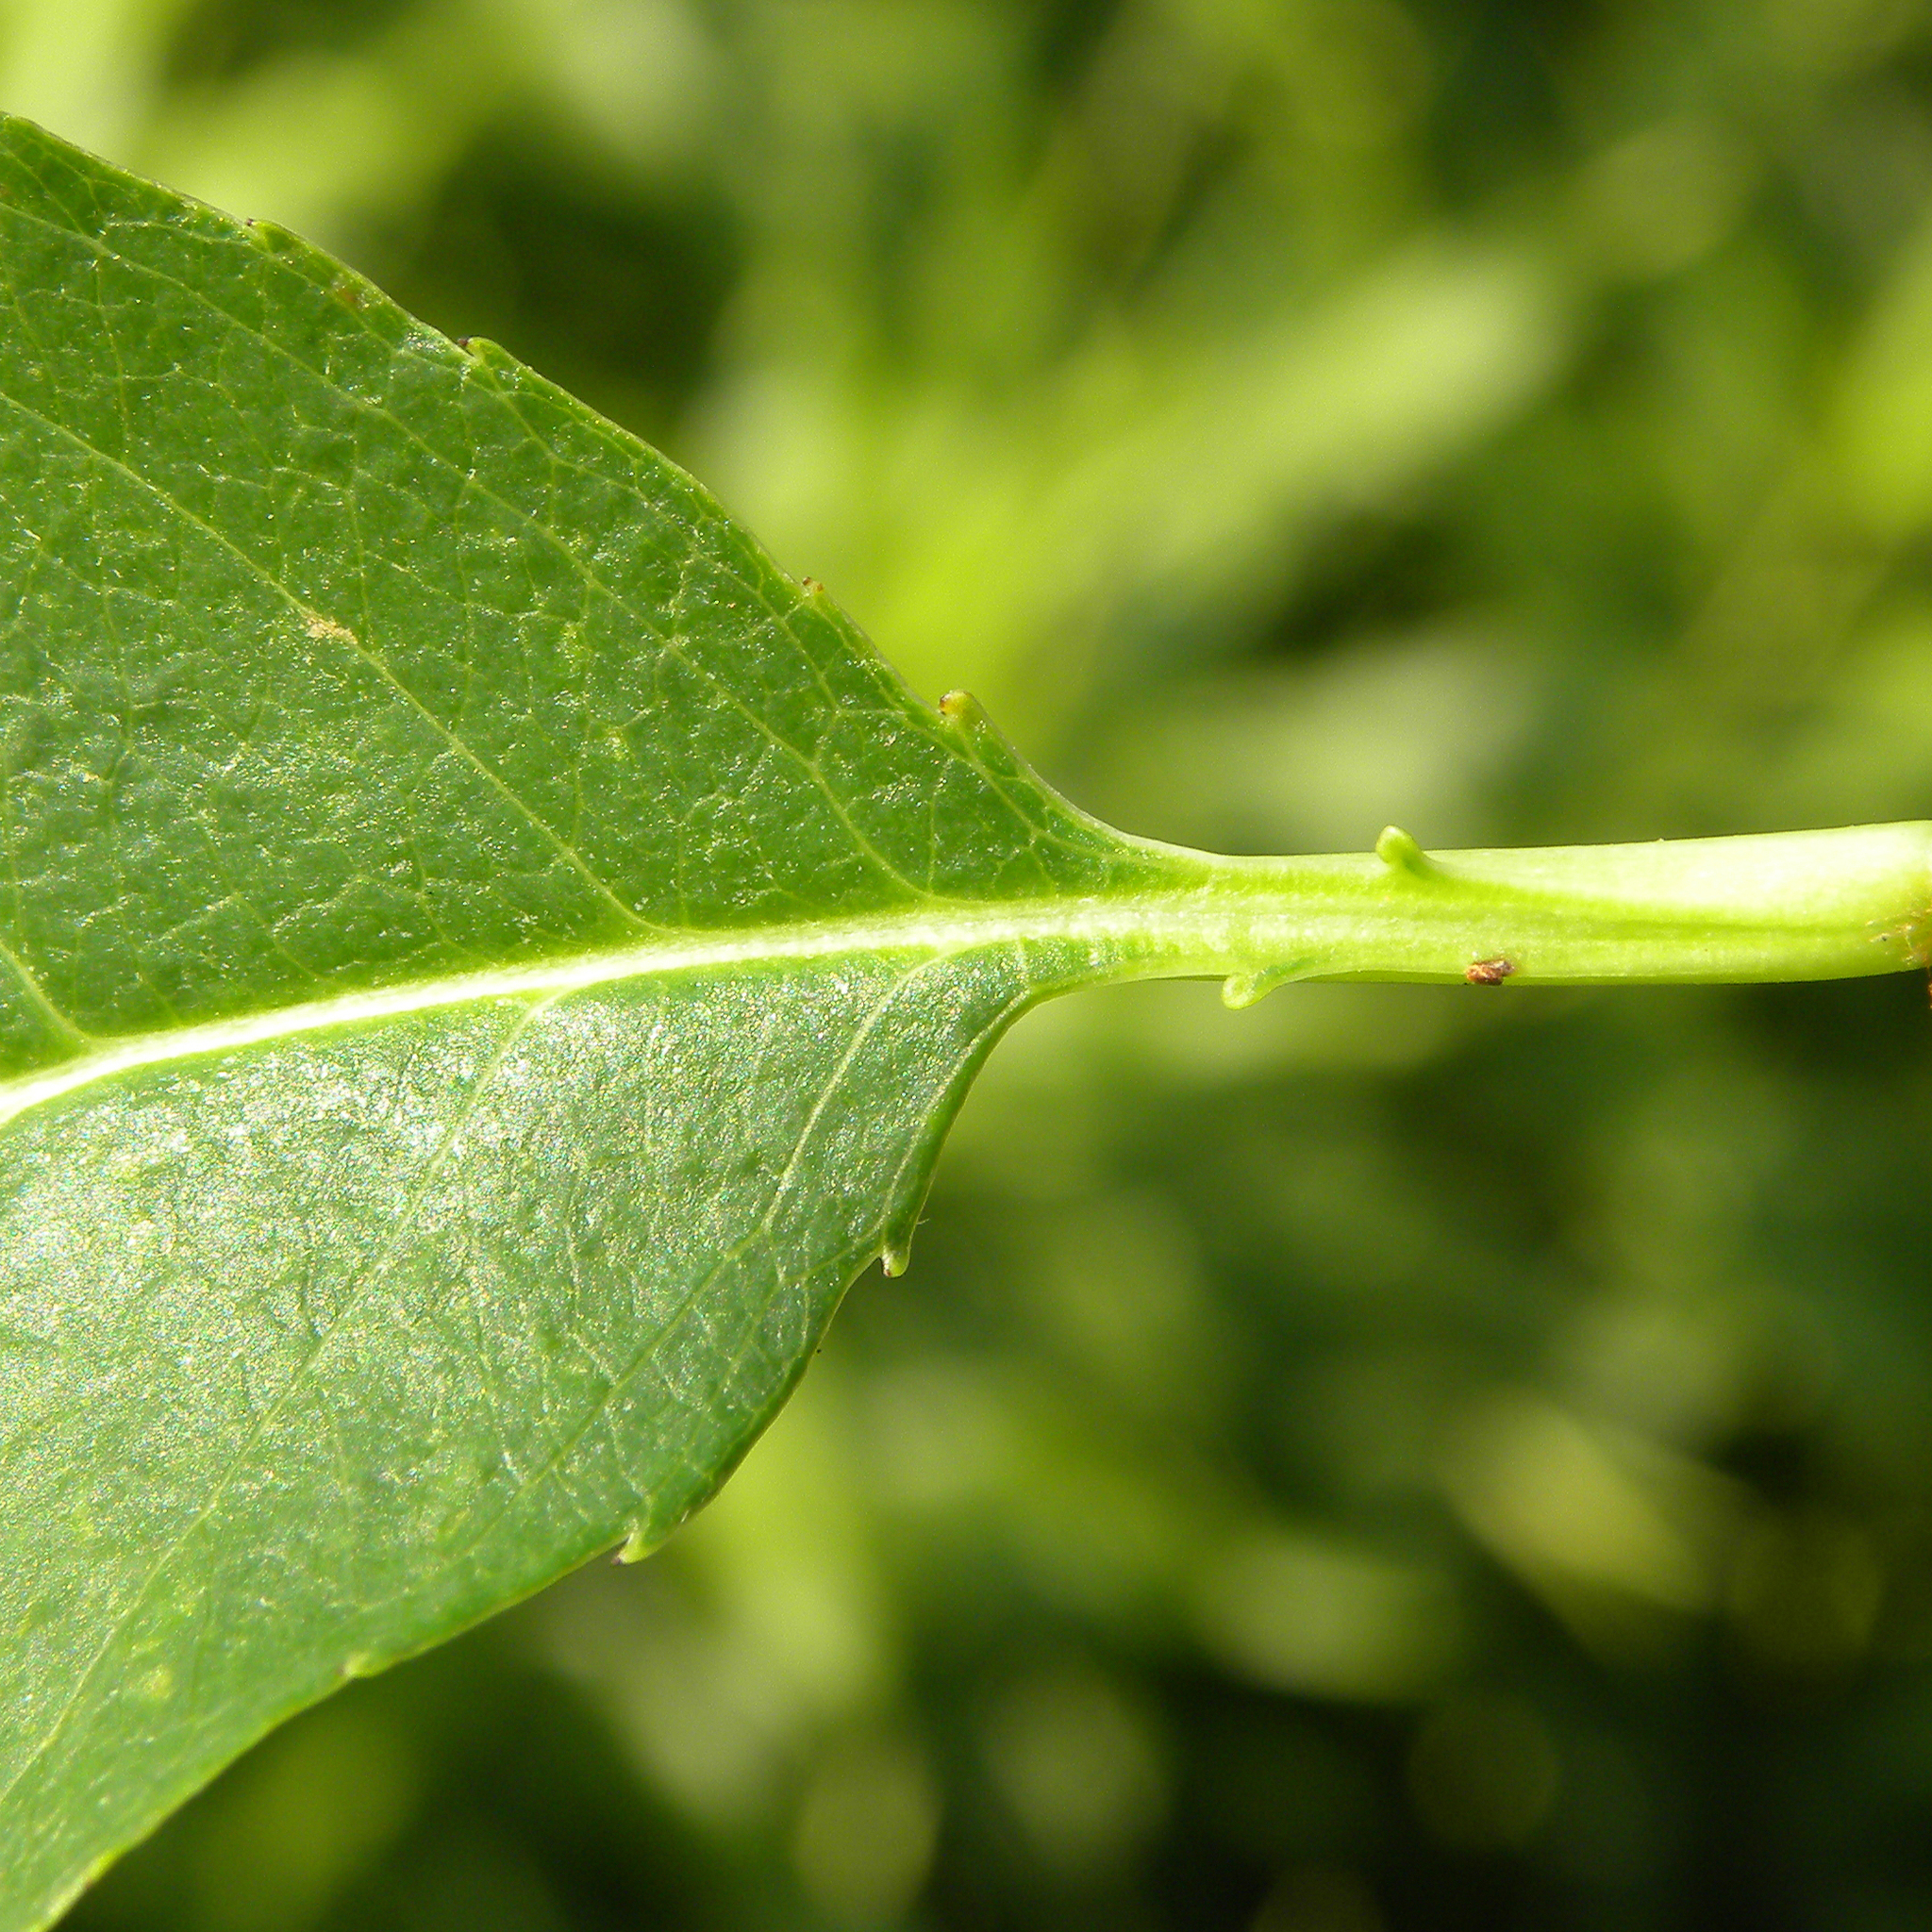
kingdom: Plantae
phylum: Tracheophyta
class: Magnoliopsida
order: Rosales
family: Rosaceae
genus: Prunus
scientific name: Prunus serotina
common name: Black cherry
